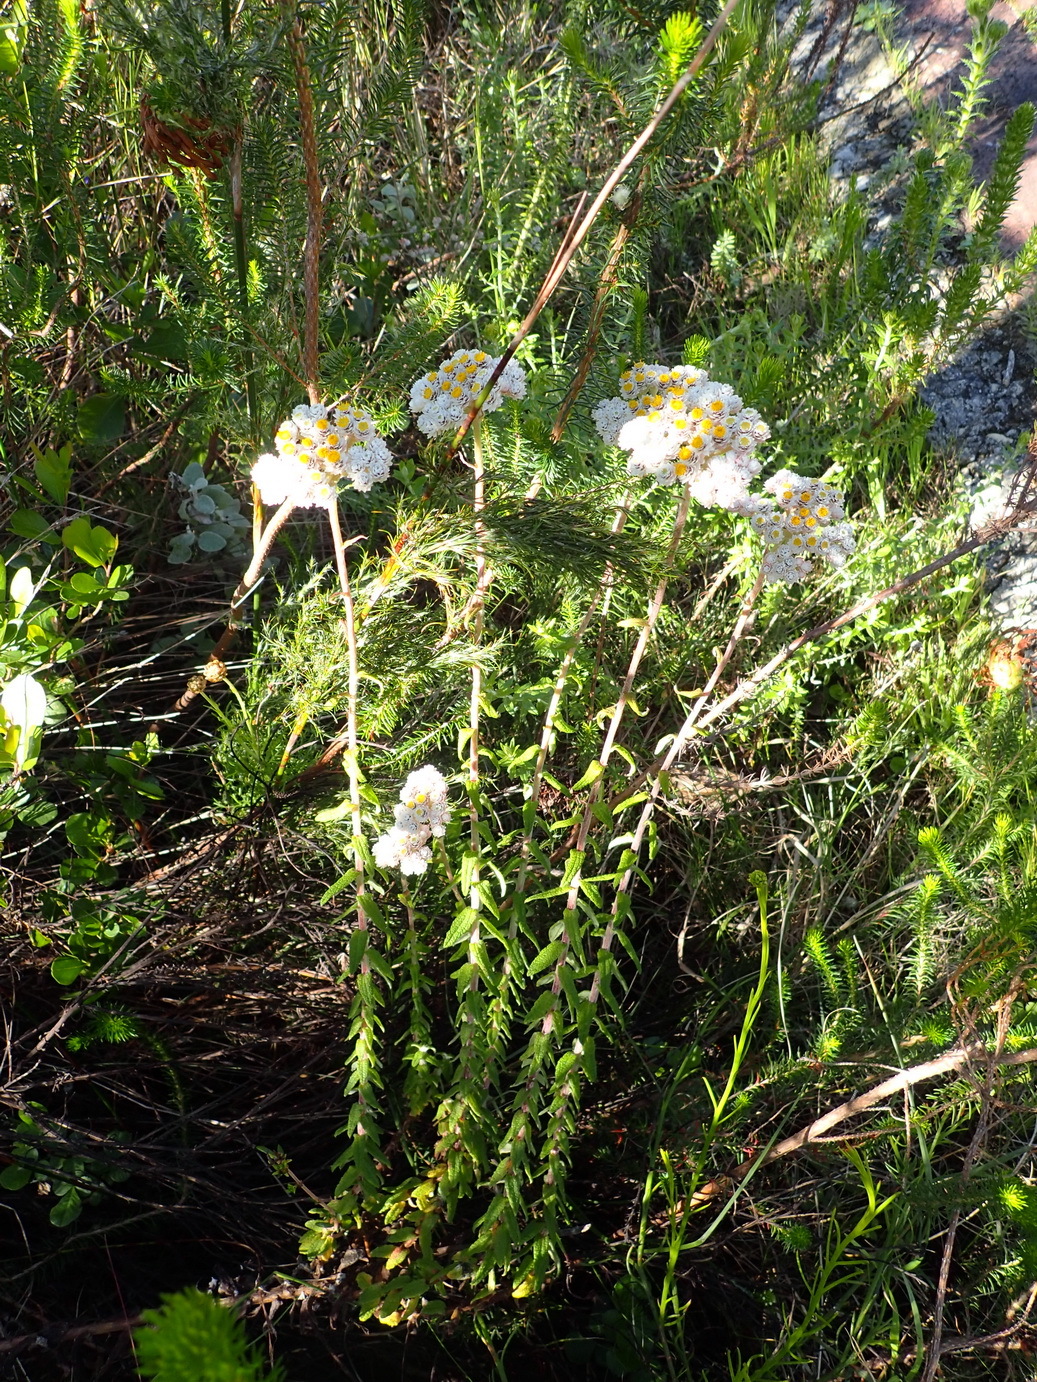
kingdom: Plantae
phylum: Tracheophyta
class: Magnoliopsida
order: Asterales
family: Asteraceae
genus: Helichrysum
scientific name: Helichrysum felinum
